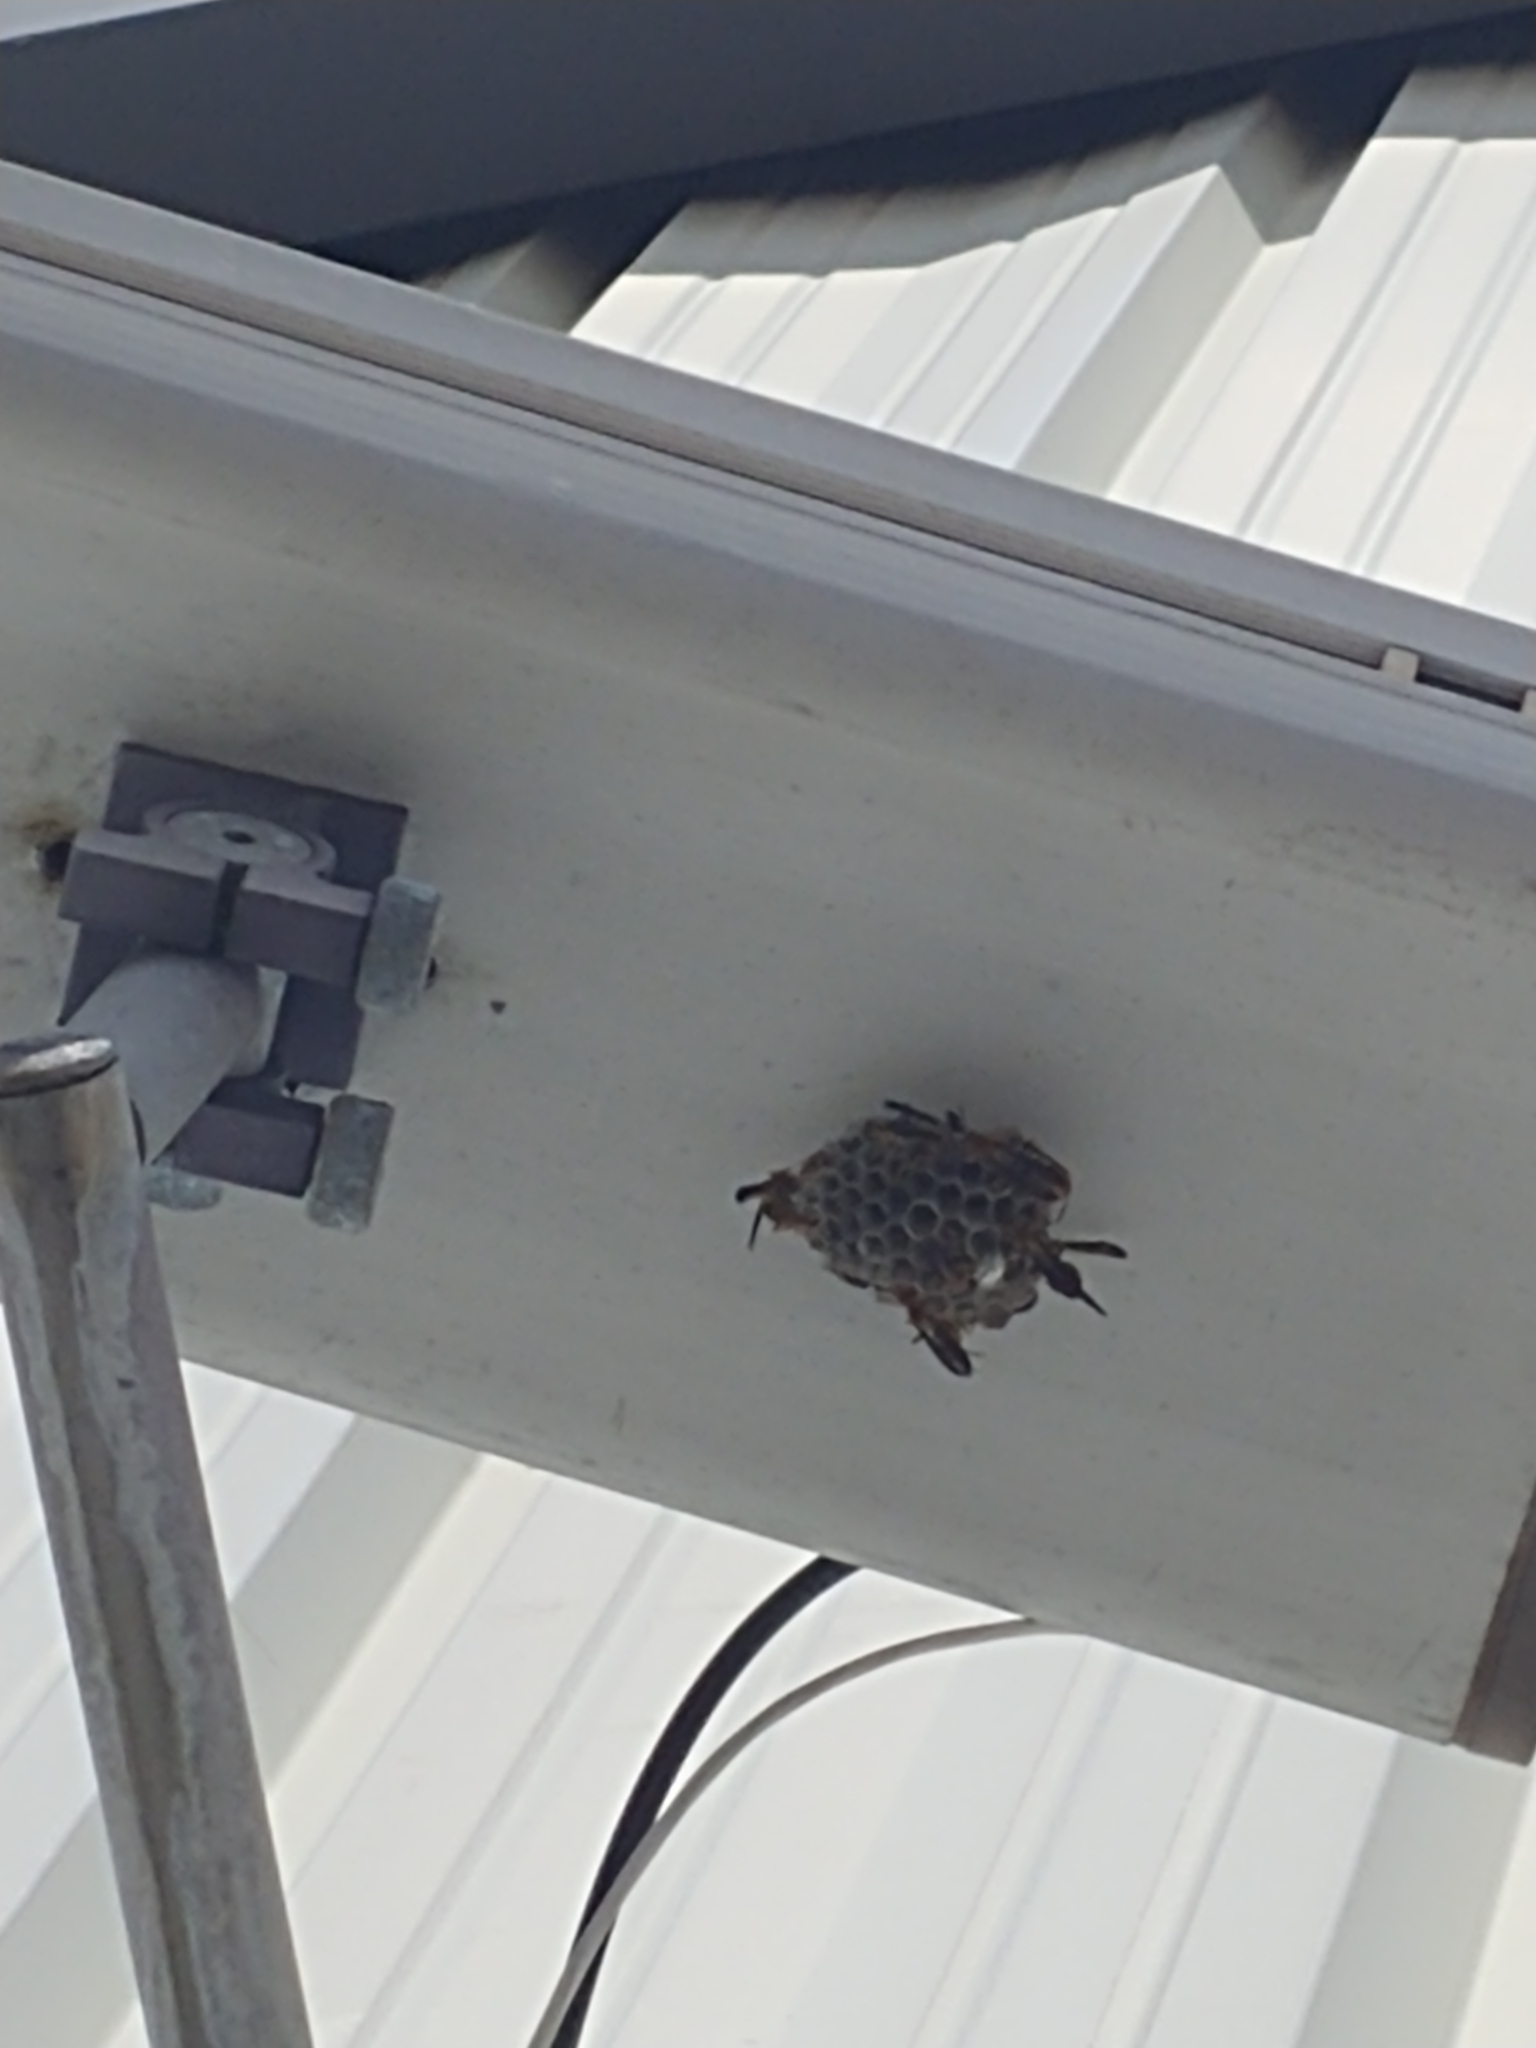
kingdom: Animalia
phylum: Arthropoda
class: Insecta
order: Hymenoptera
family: Eumenidae
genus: Polistes
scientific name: Polistes
